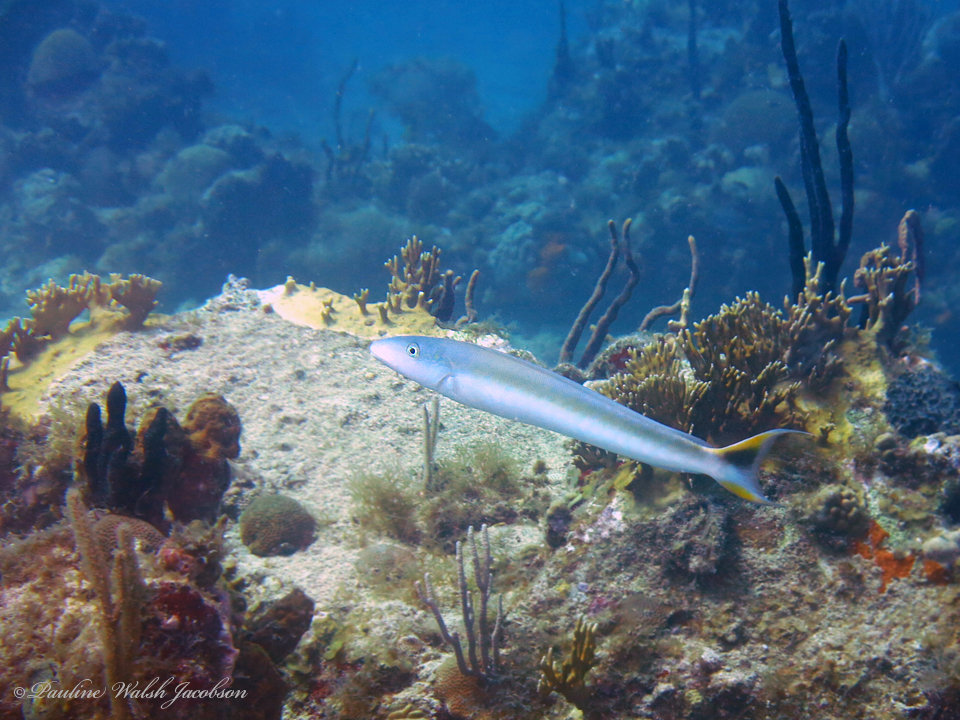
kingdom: Animalia
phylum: Chordata
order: Perciformes
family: Malacanthidae
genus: Malacanthus
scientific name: Malacanthus plumieri
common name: Sand tilefish
